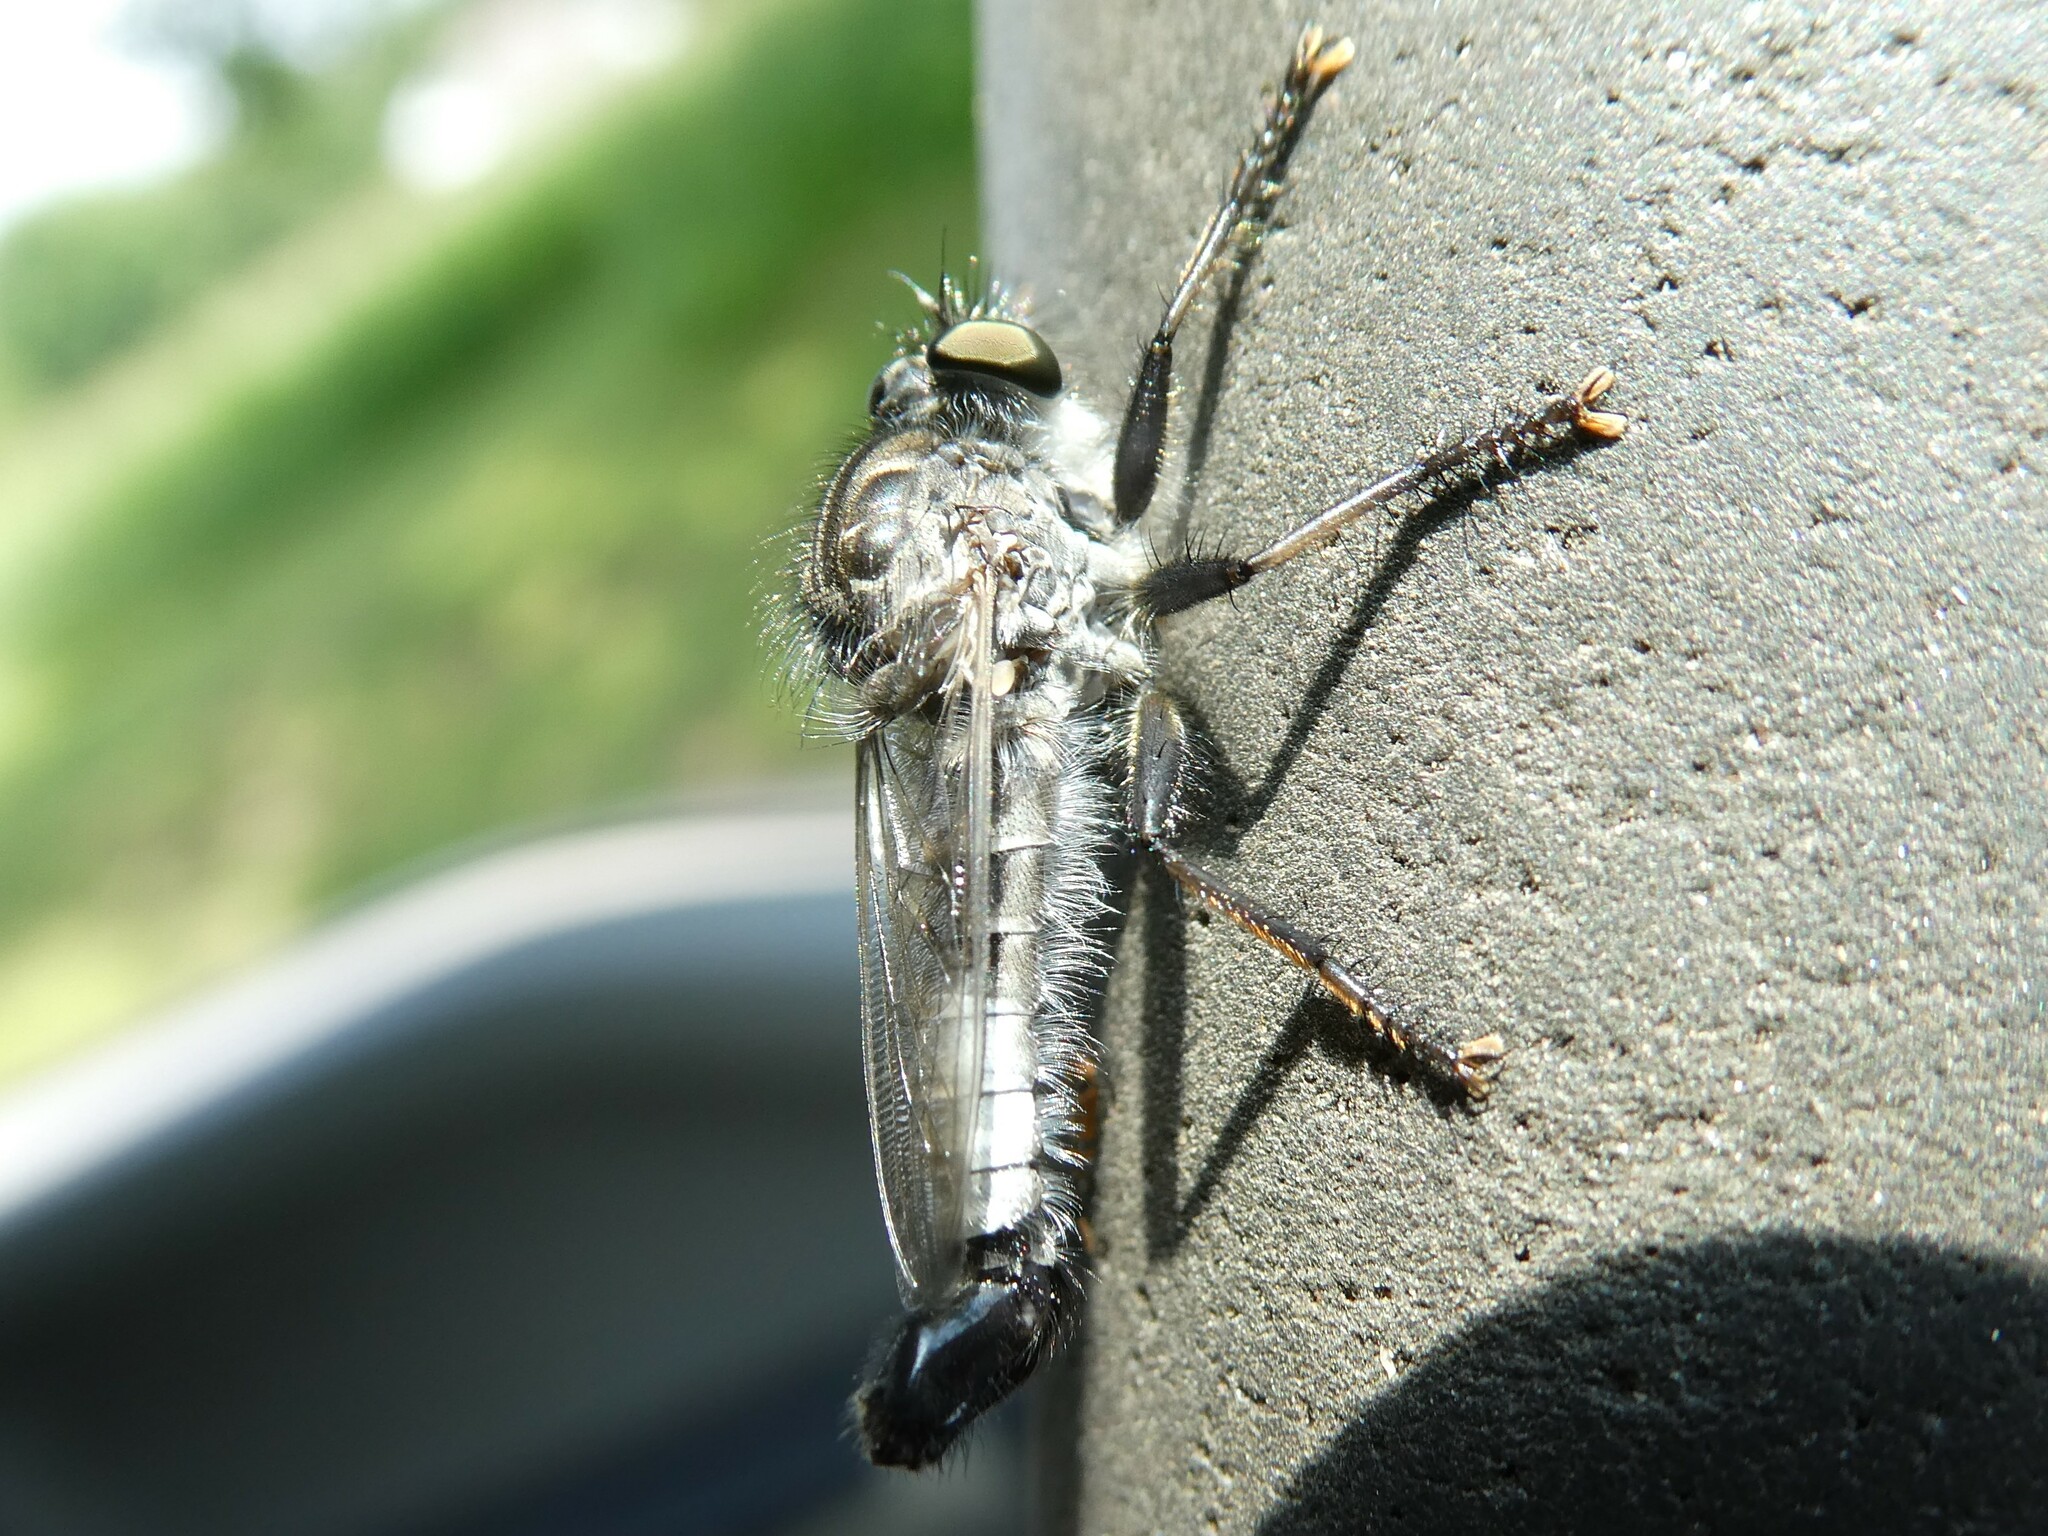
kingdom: Animalia
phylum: Arthropoda
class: Insecta
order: Diptera
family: Asilidae
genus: Efferia
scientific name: Efferia aestuans
